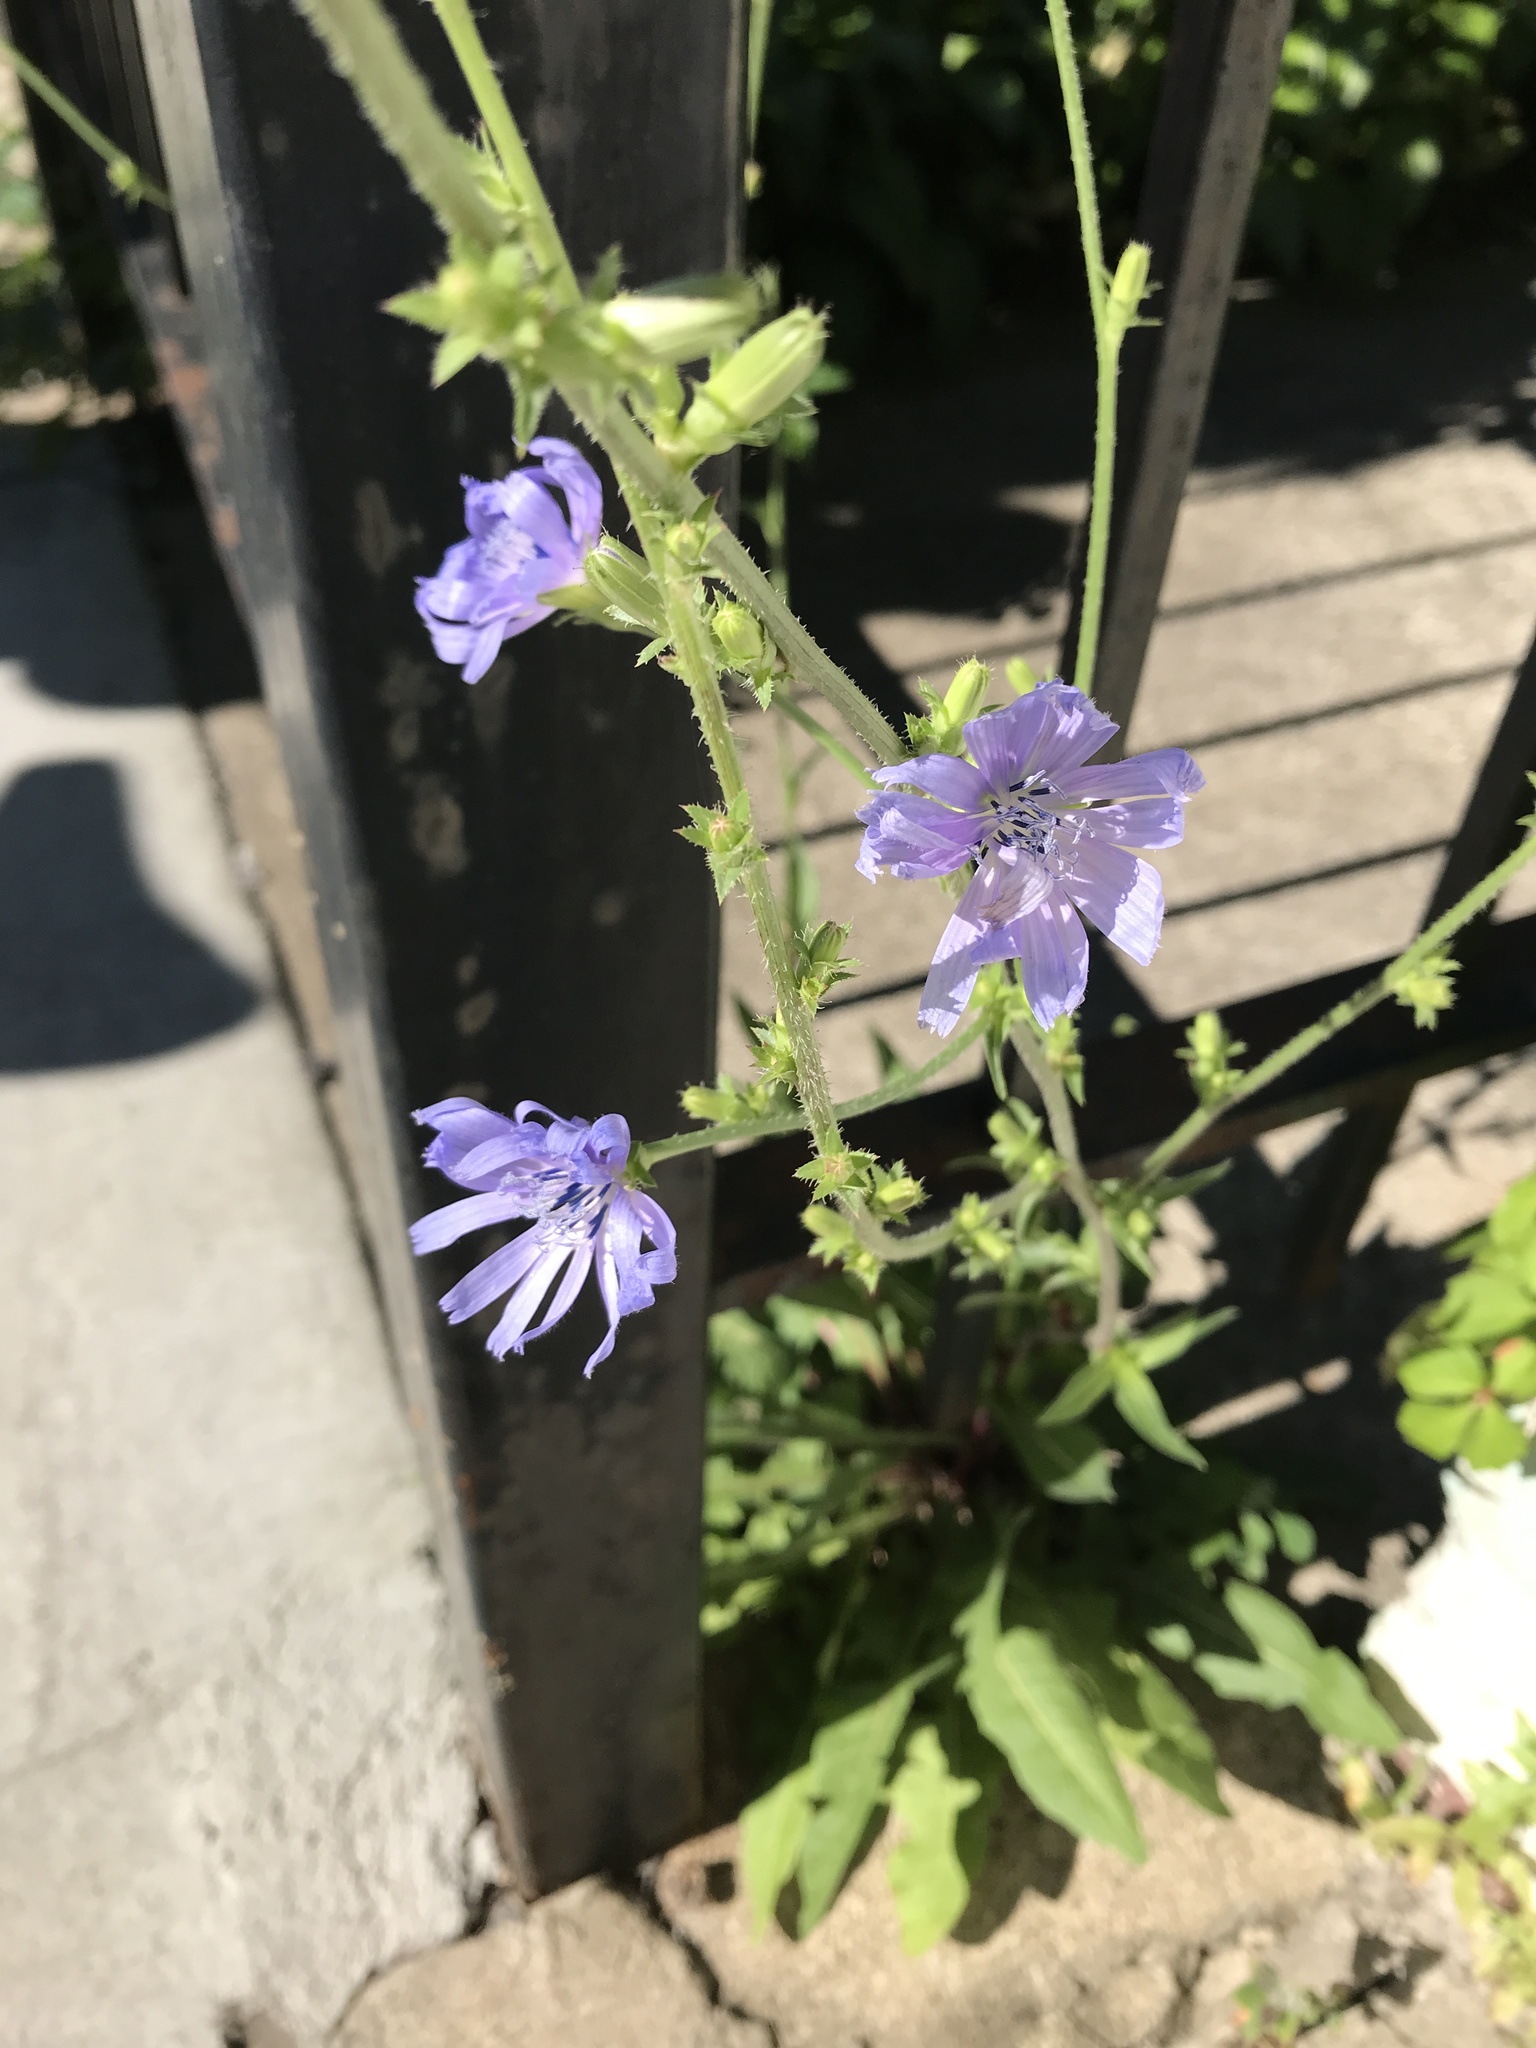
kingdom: Plantae
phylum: Tracheophyta
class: Magnoliopsida
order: Asterales
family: Asteraceae
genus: Cichorium
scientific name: Cichorium intybus
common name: Chicory
